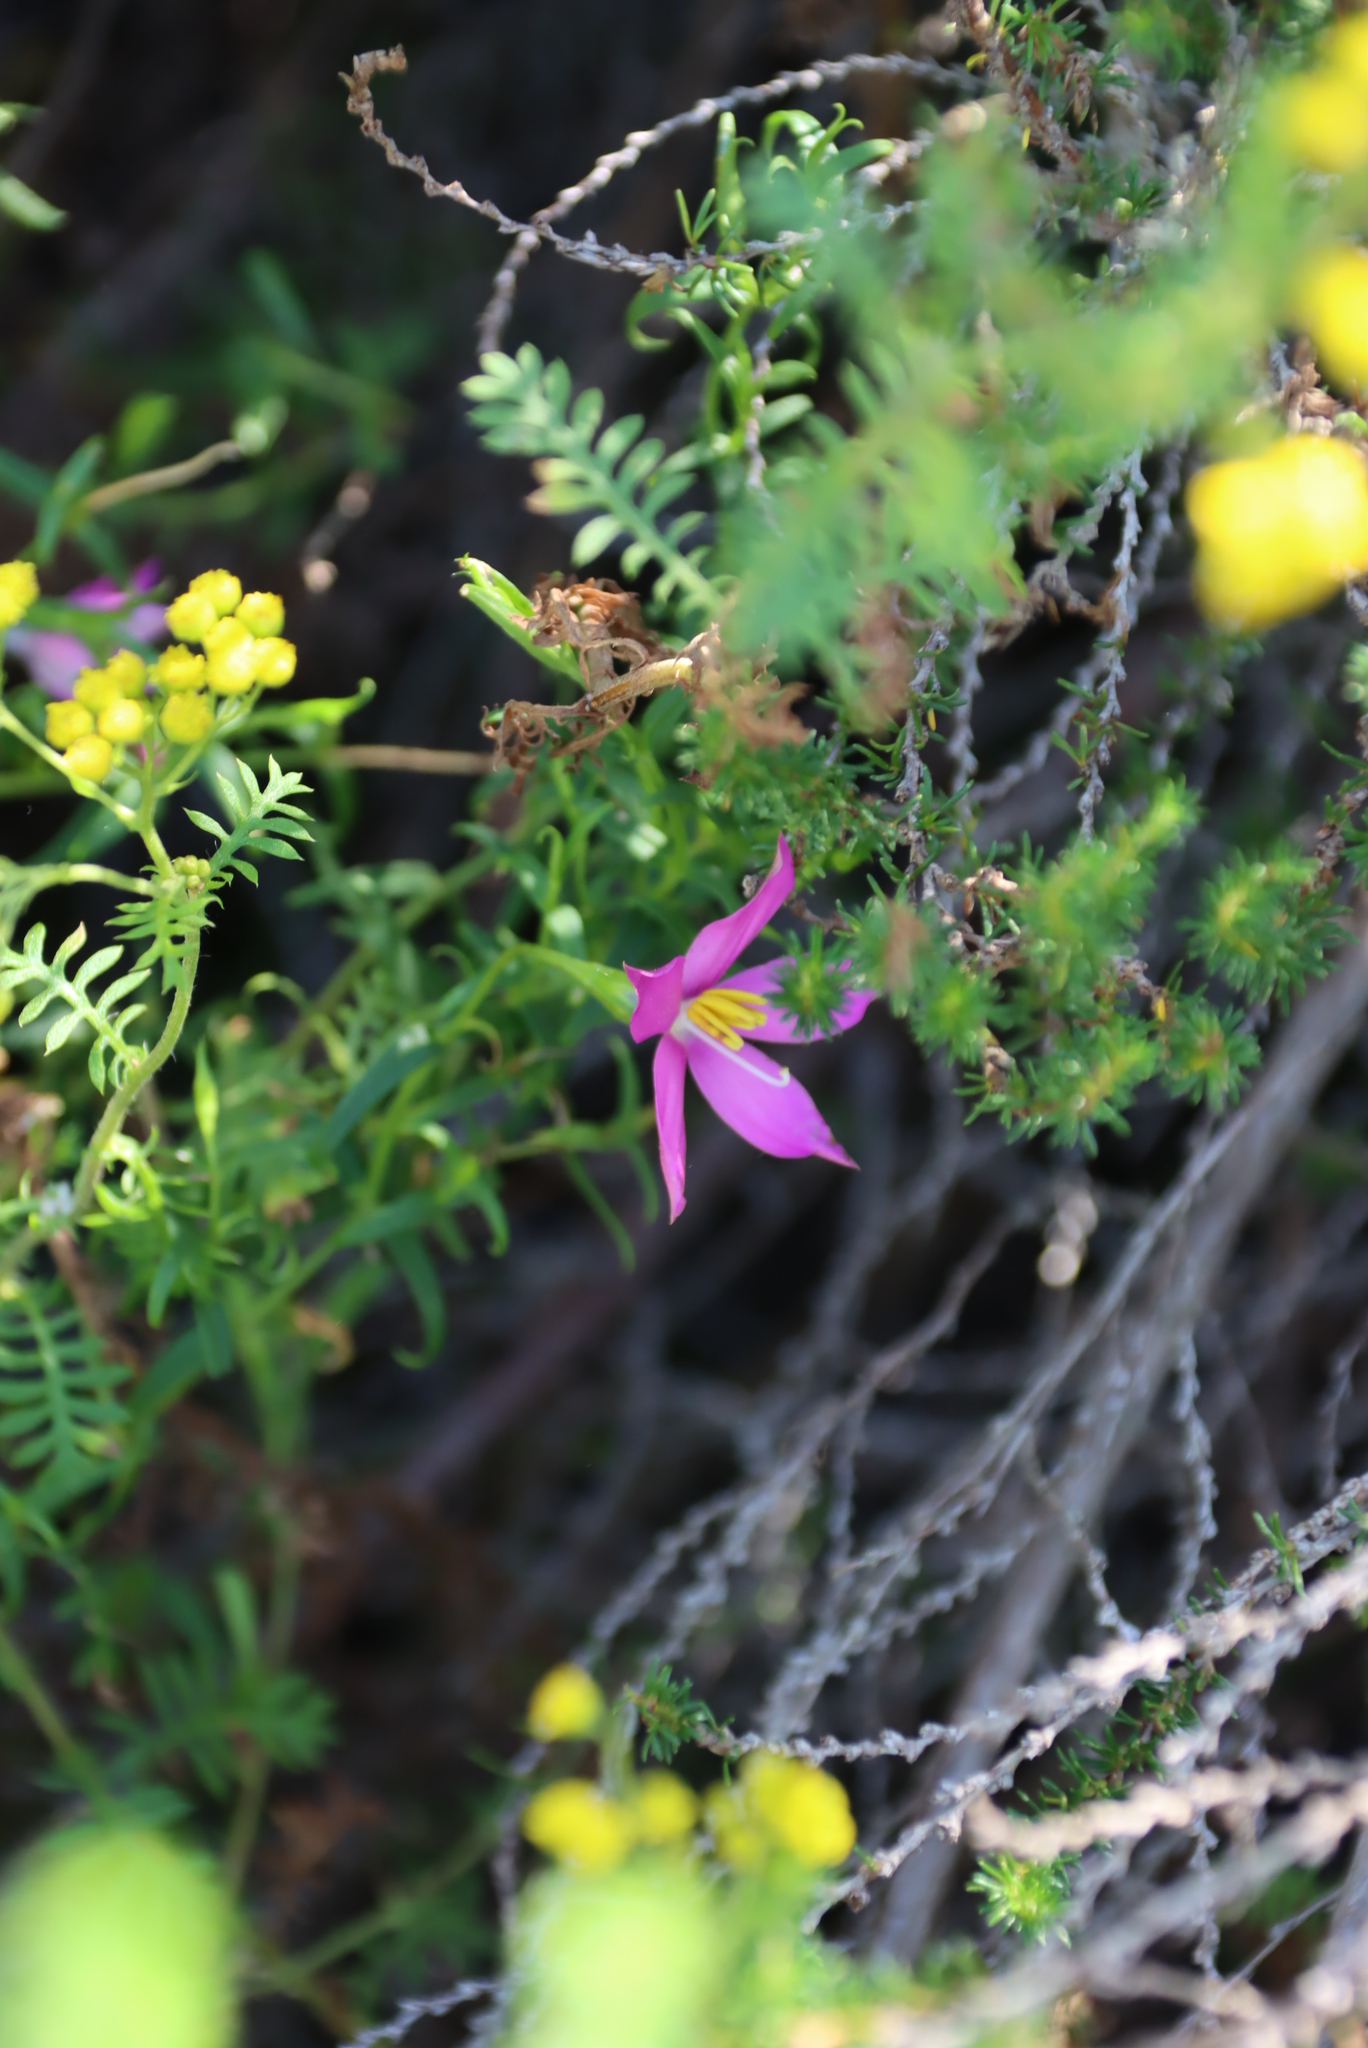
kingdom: Plantae
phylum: Tracheophyta
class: Magnoliopsida
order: Gentianales
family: Gentianaceae
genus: Chironia
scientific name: Chironia tetragona
